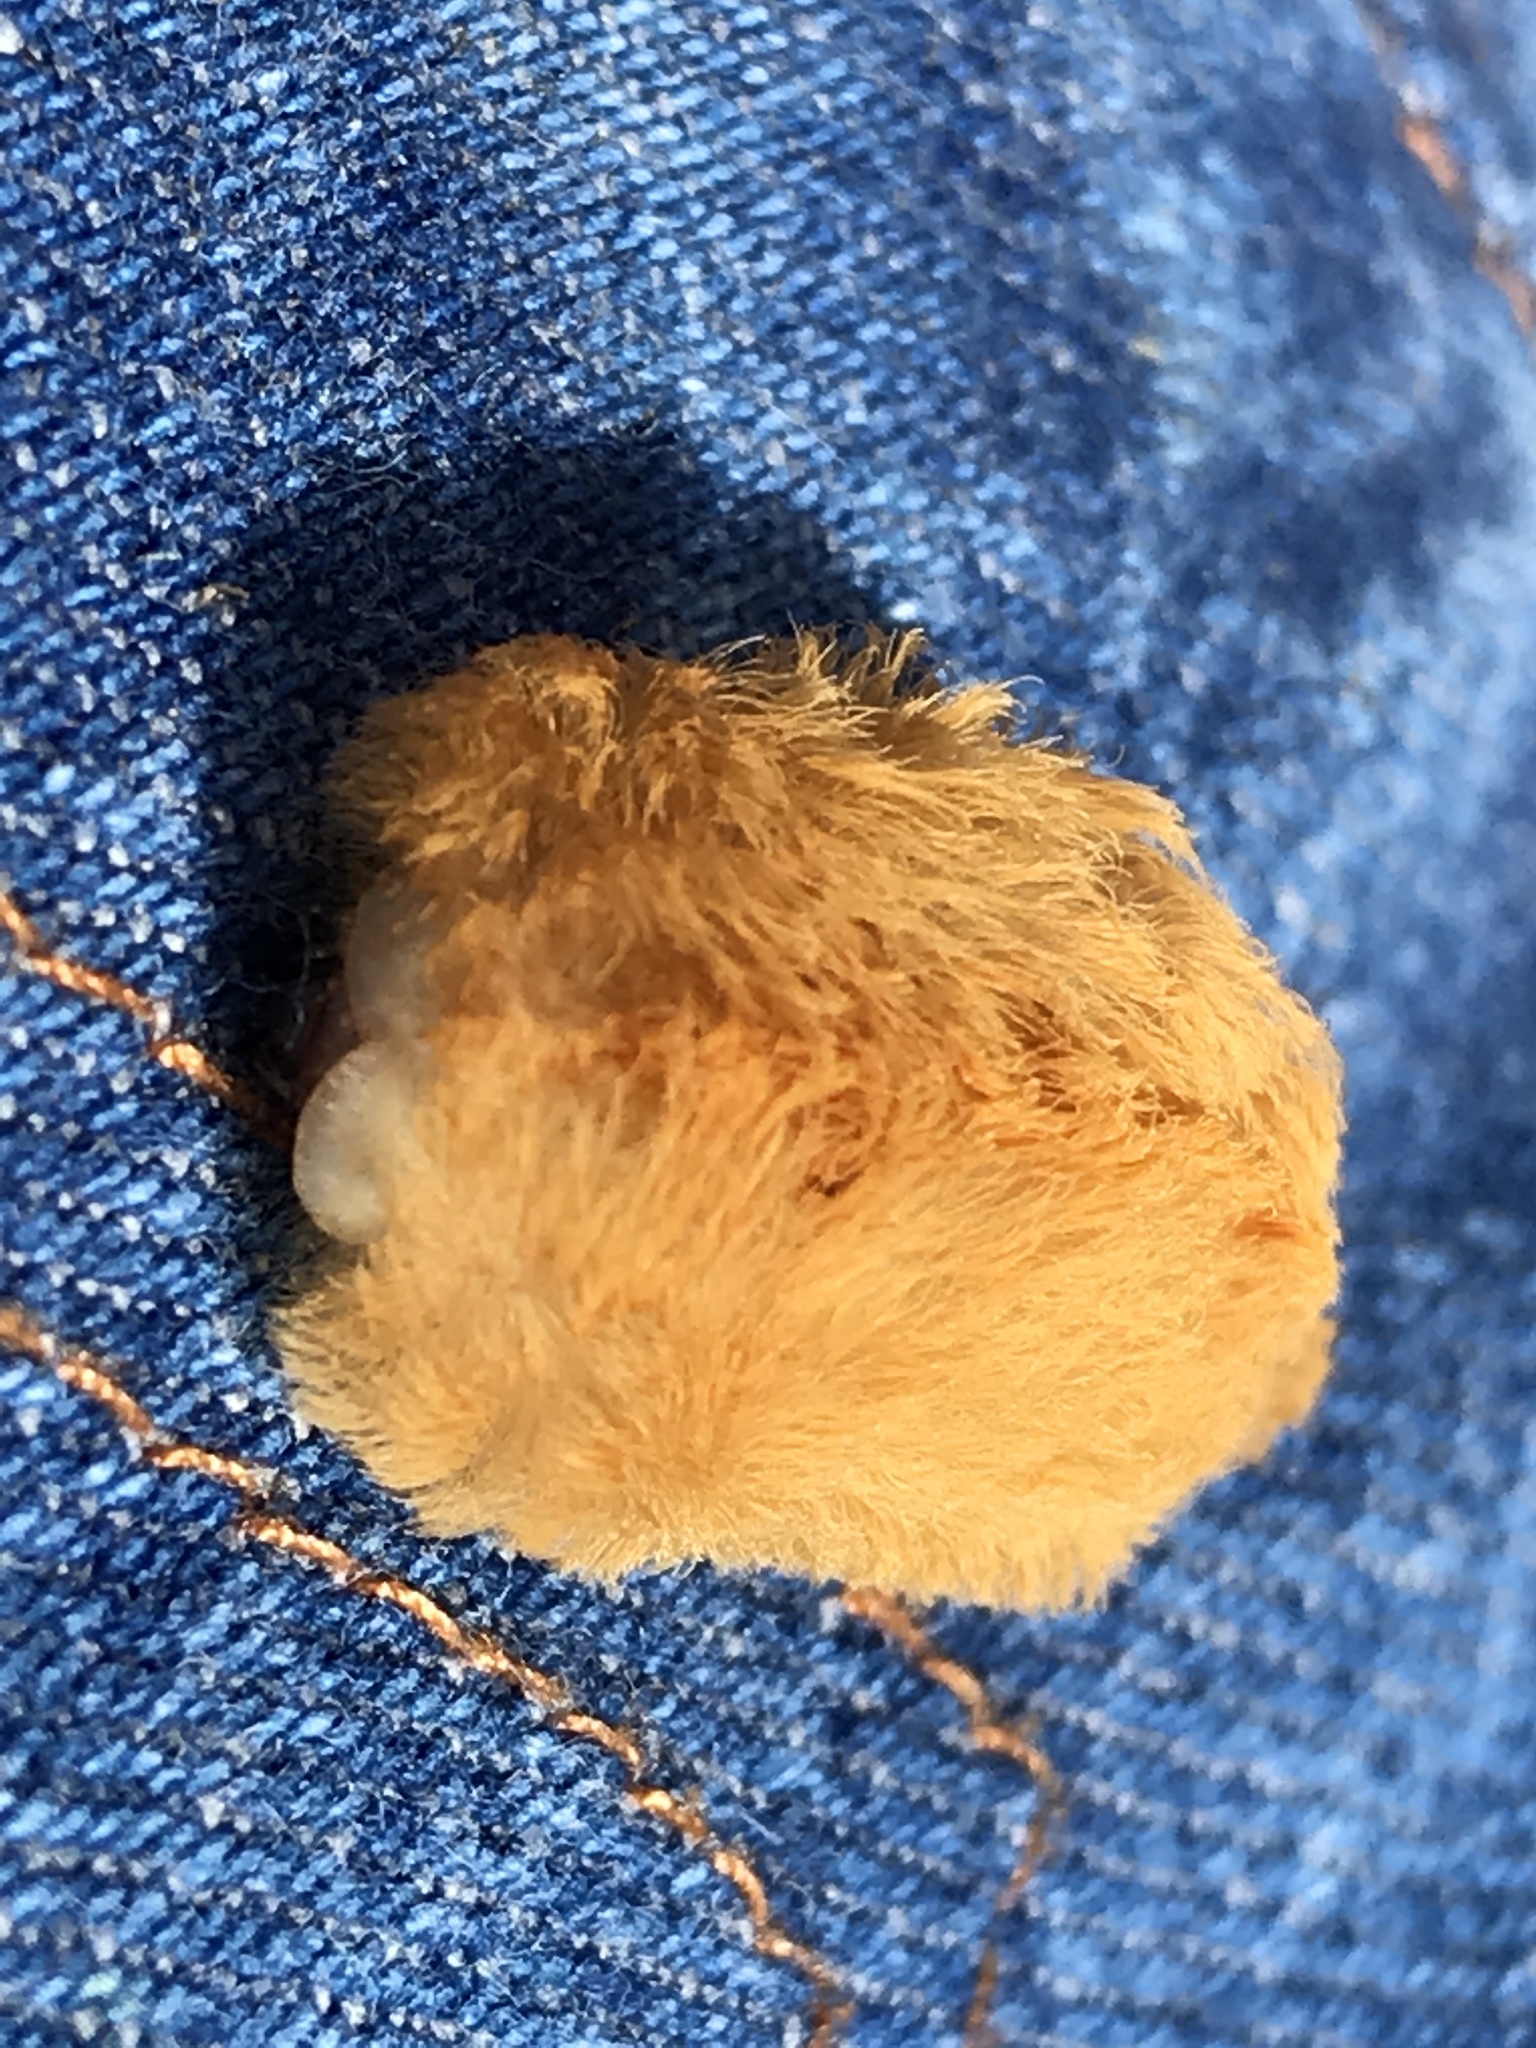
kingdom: Animalia
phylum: Arthropoda
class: Insecta
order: Lepidoptera
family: Megalopygidae
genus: Megalopyge
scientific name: Megalopyge opercularis
